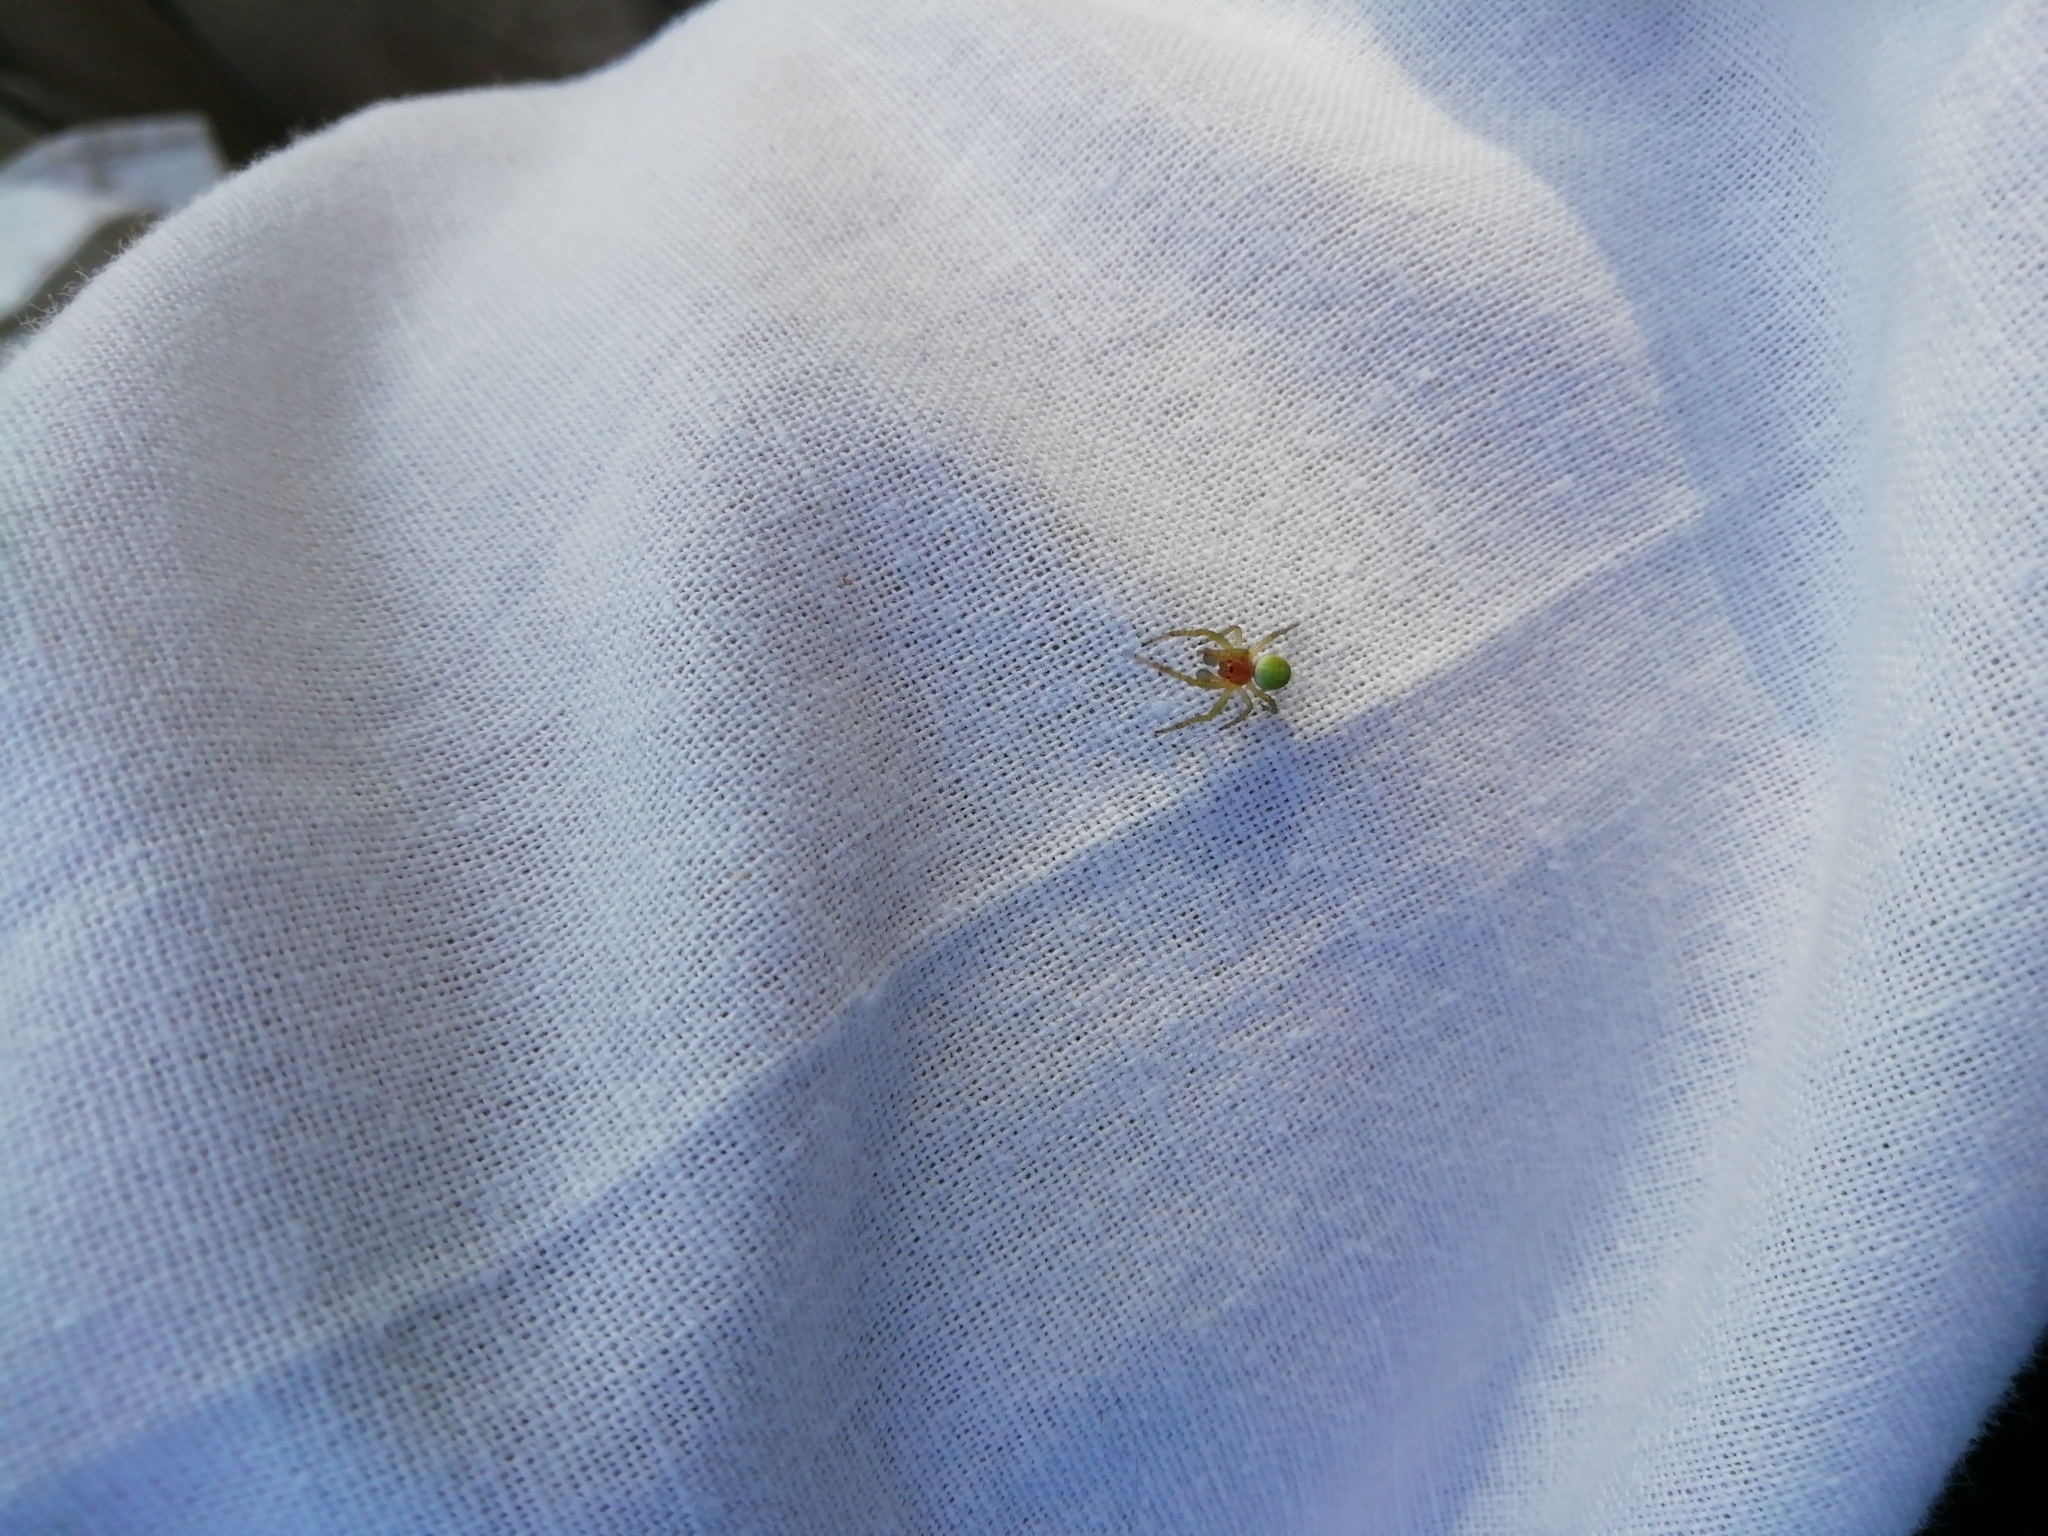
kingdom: Animalia
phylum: Arthropoda
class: Arachnida
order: Araneae
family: Araneidae
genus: Araniella
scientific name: Araniella
